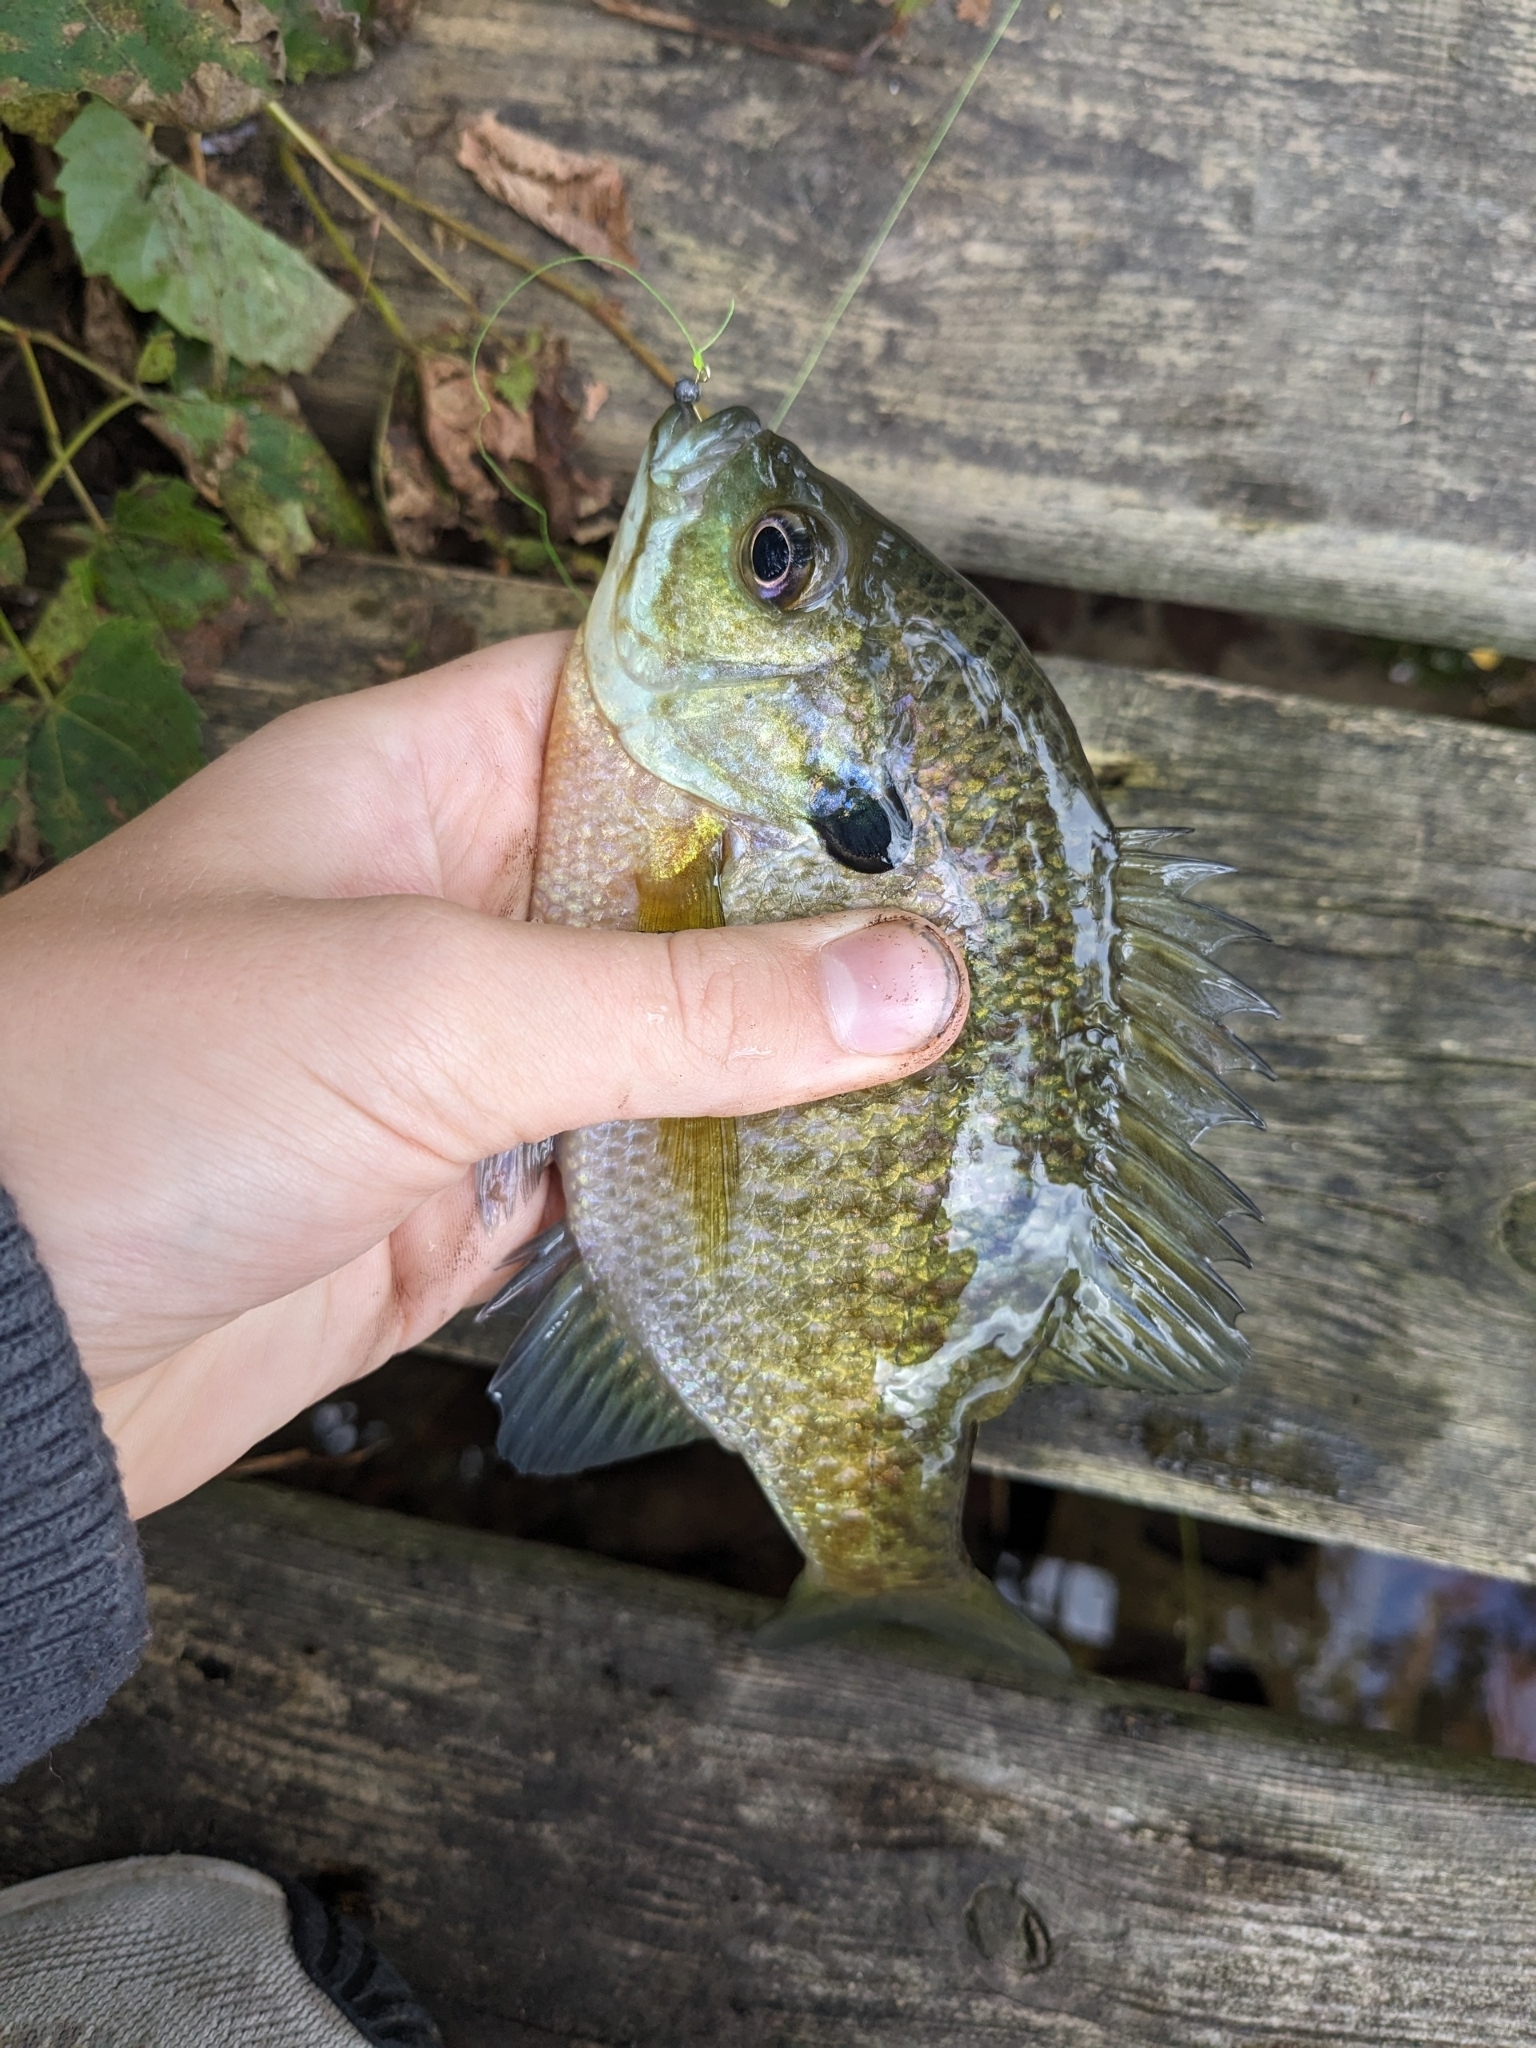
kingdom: Animalia
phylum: Chordata
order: Perciformes
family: Centrarchidae
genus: Lepomis
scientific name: Lepomis macrochirus
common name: Bluegill
